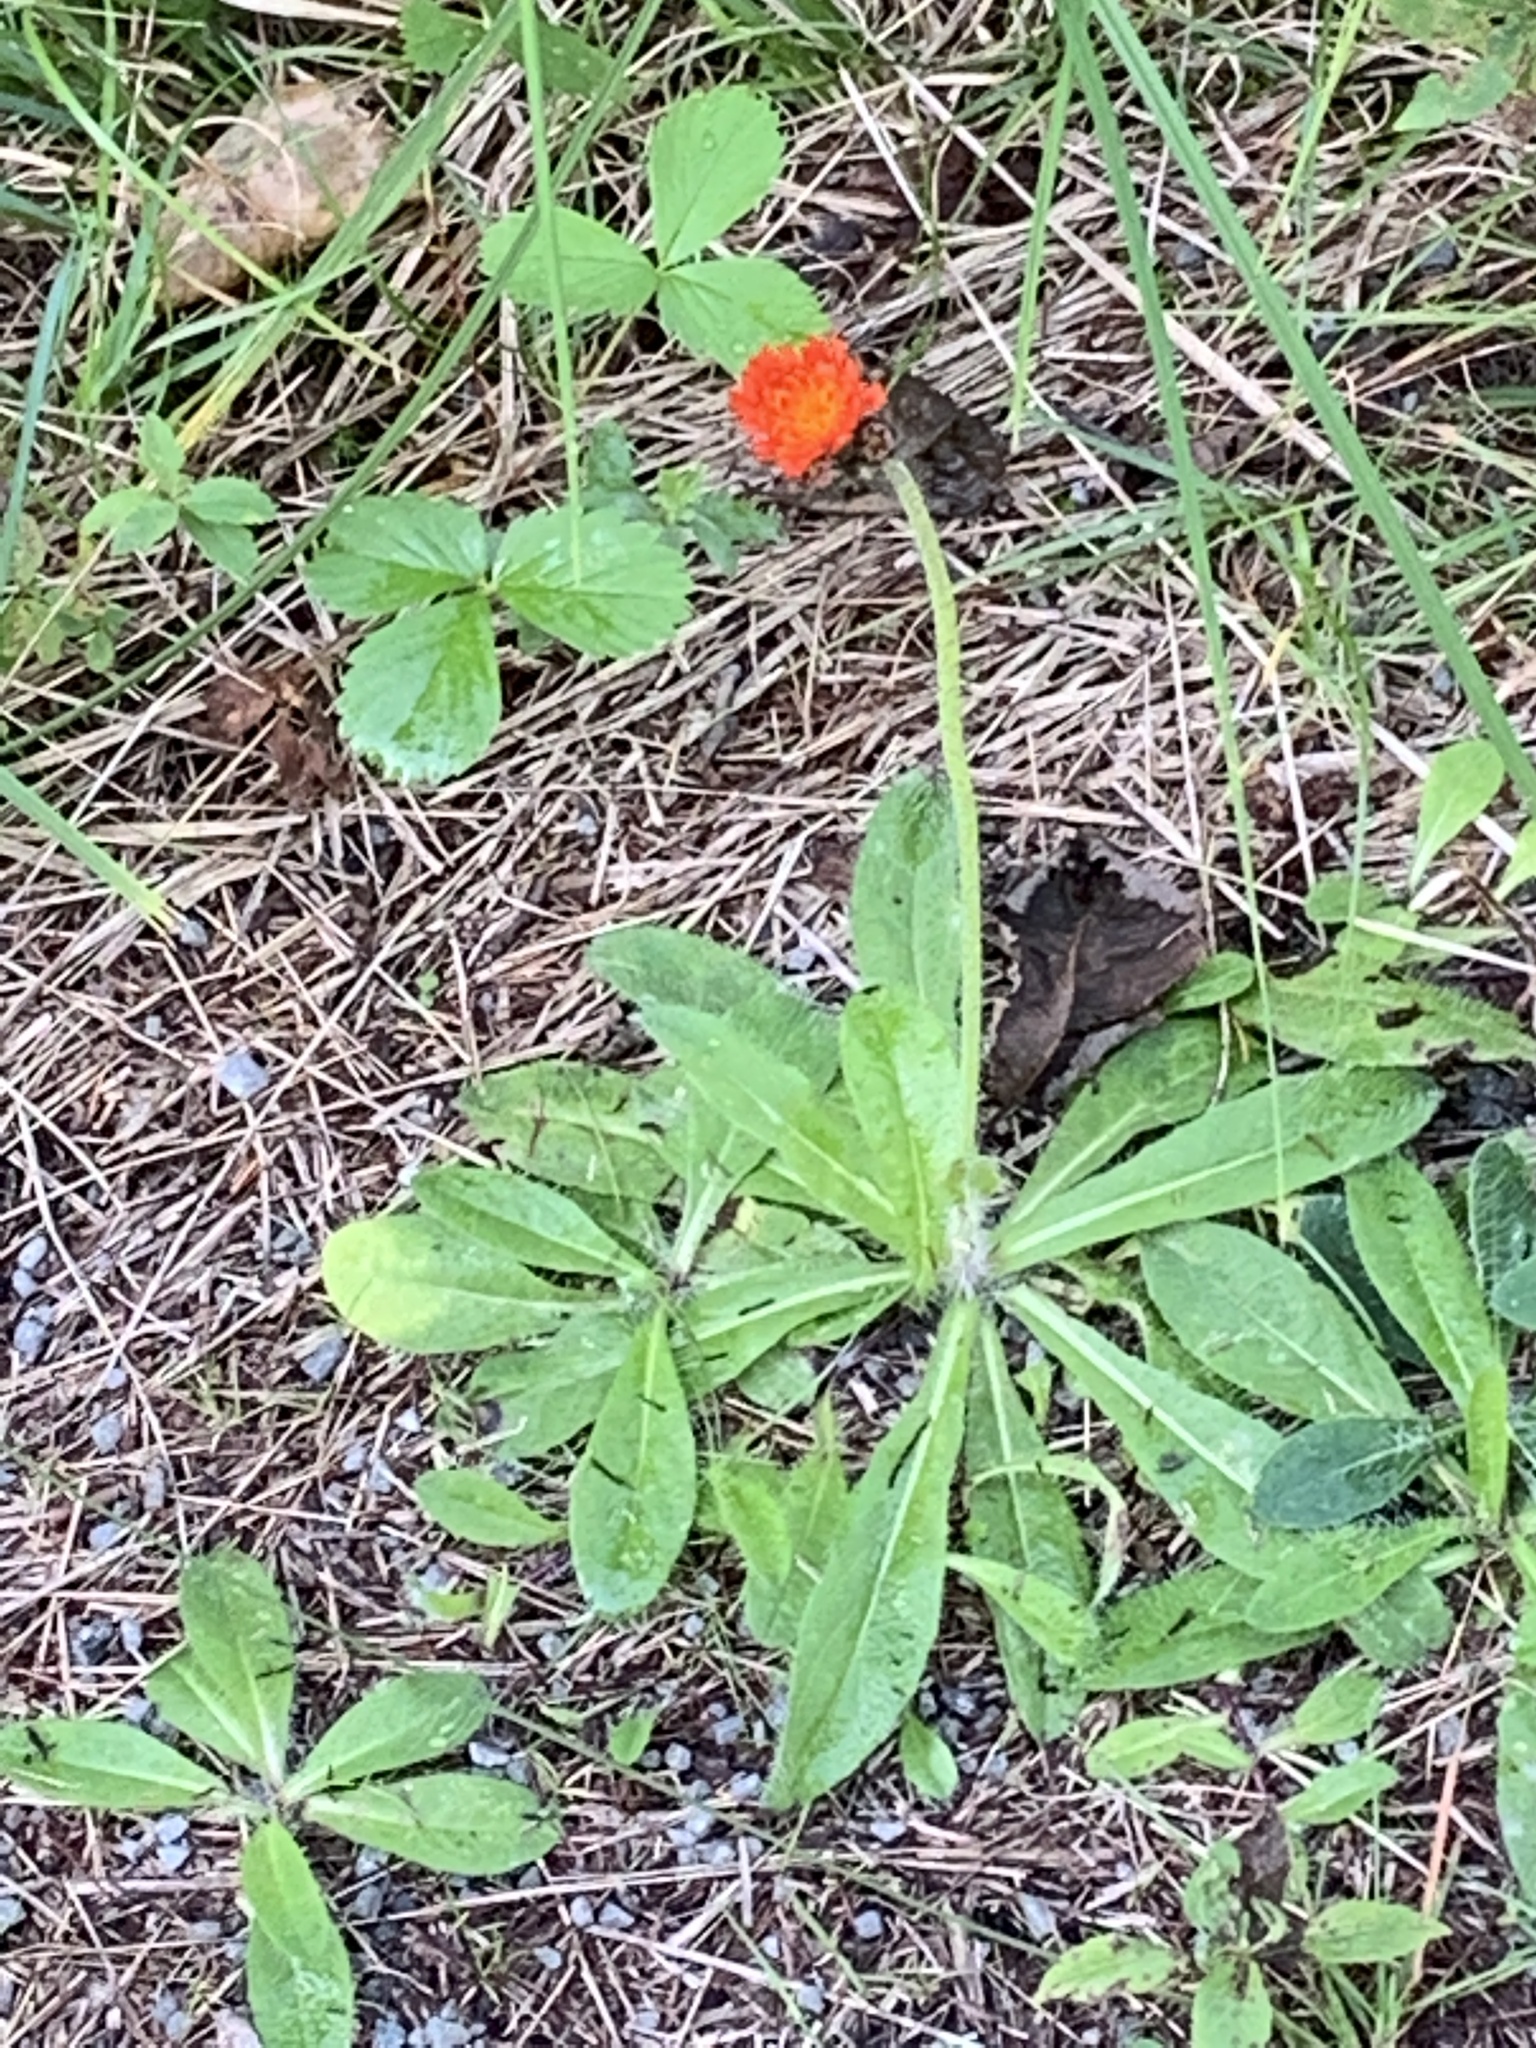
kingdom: Plantae
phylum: Tracheophyta
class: Magnoliopsida
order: Asterales
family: Asteraceae
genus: Pilosella
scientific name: Pilosella aurantiaca
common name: Fox-and-cubs
